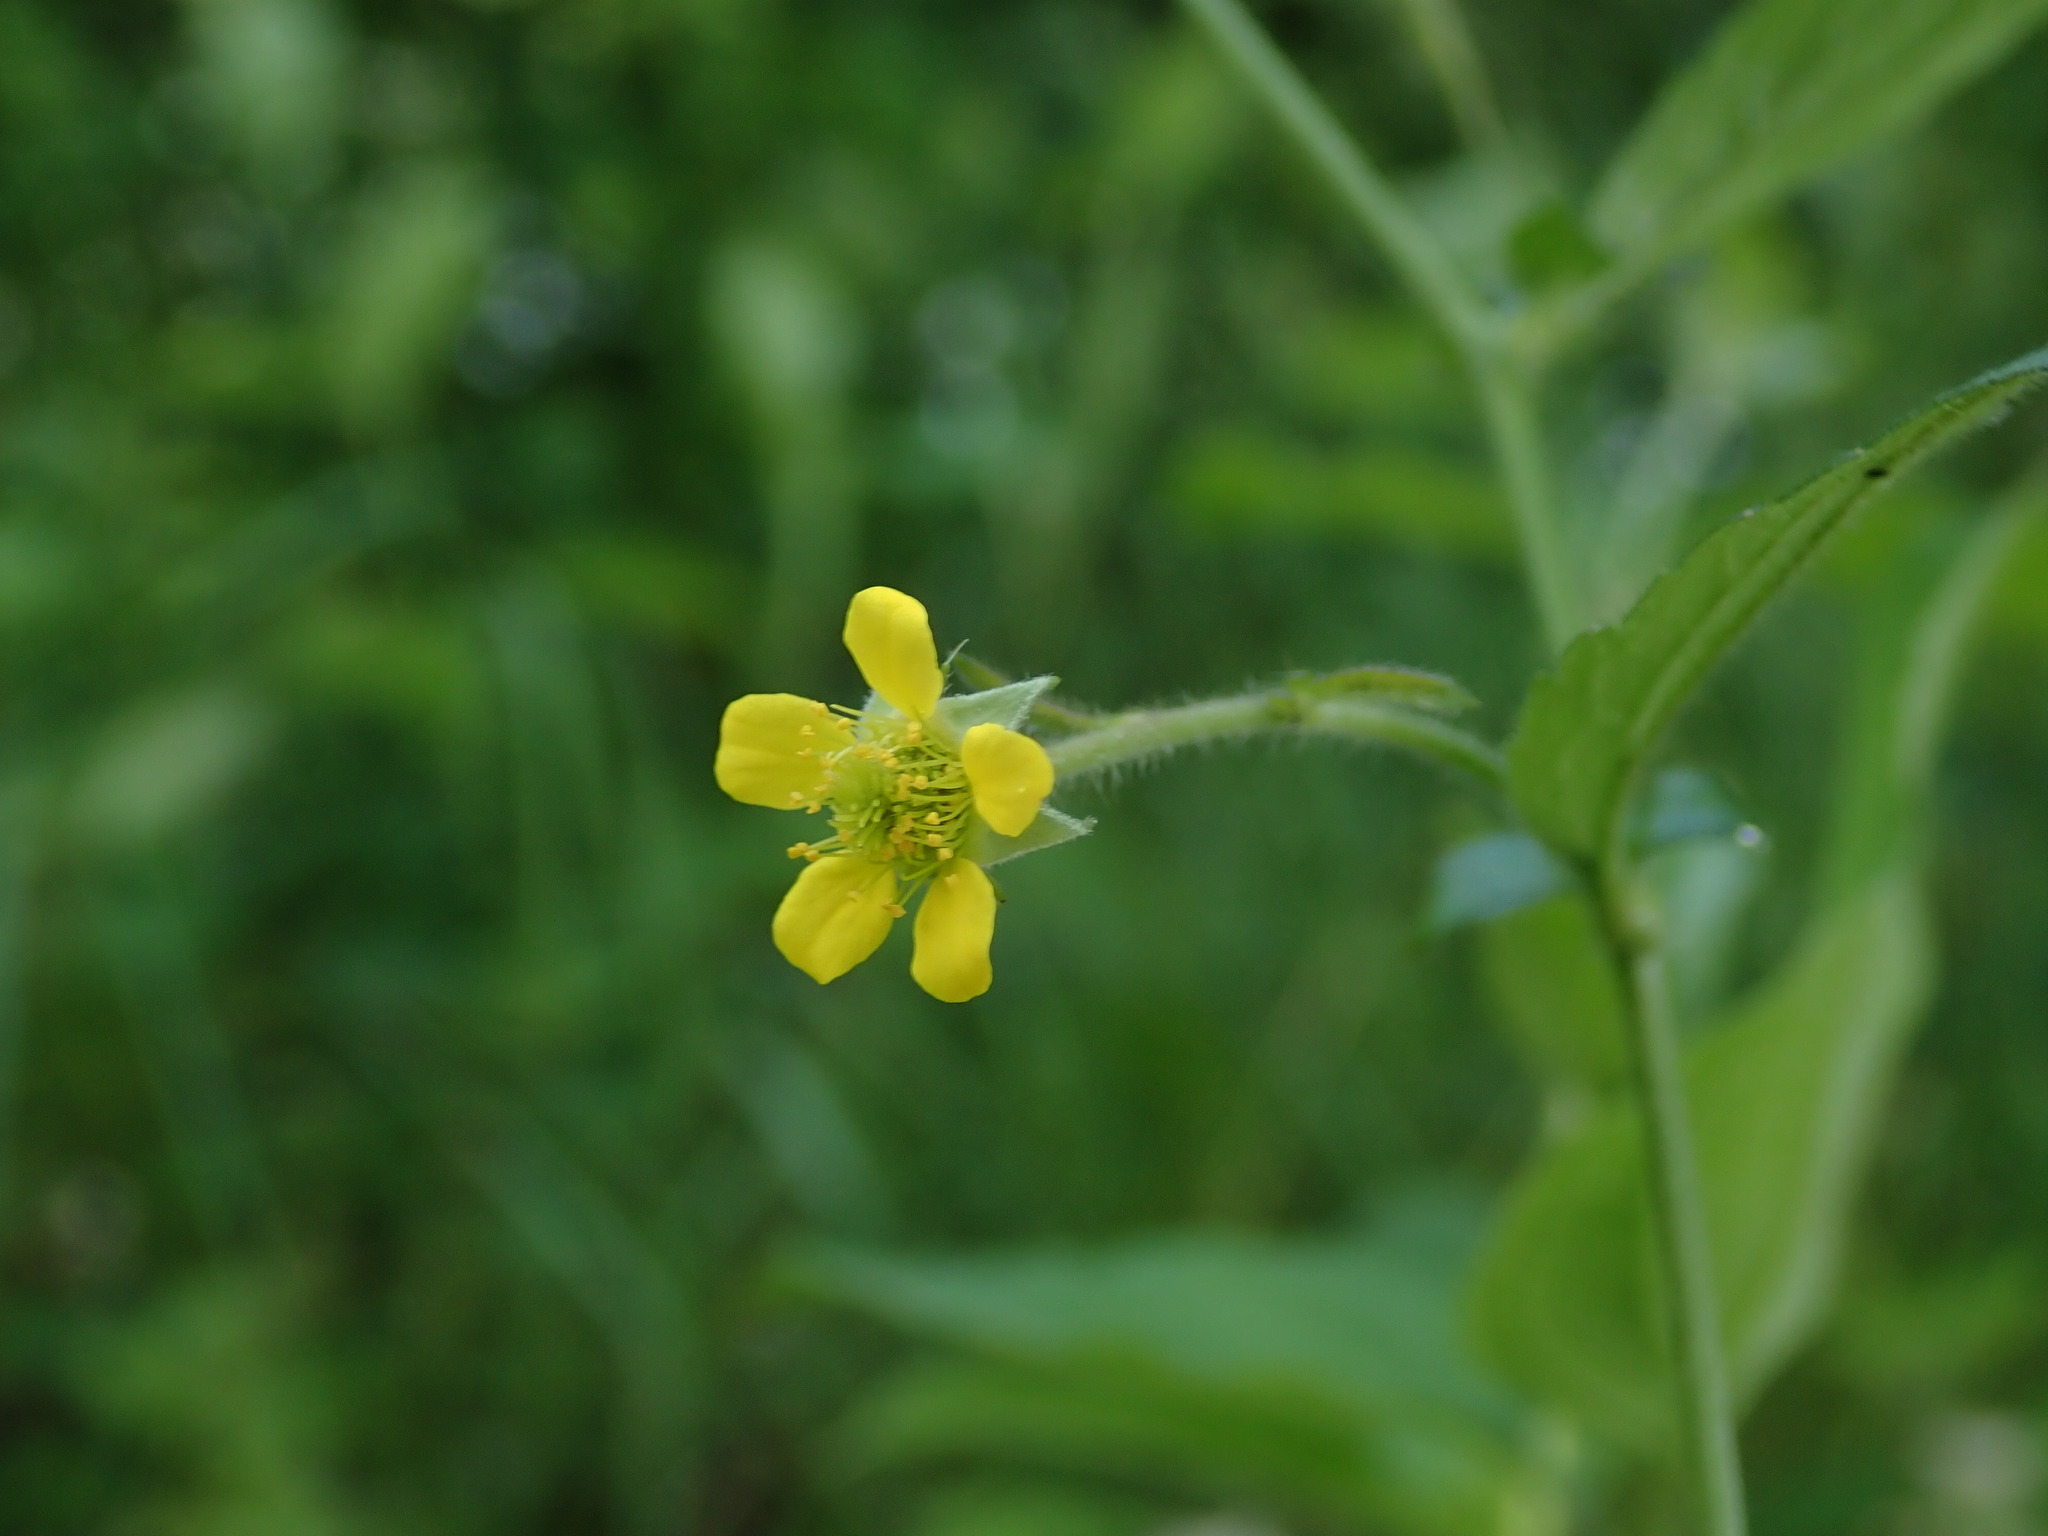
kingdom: Plantae
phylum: Tracheophyta
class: Magnoliopsida
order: Rosales
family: Rosaceae
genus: Geum
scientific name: Geum urbanum
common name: Wood avens
